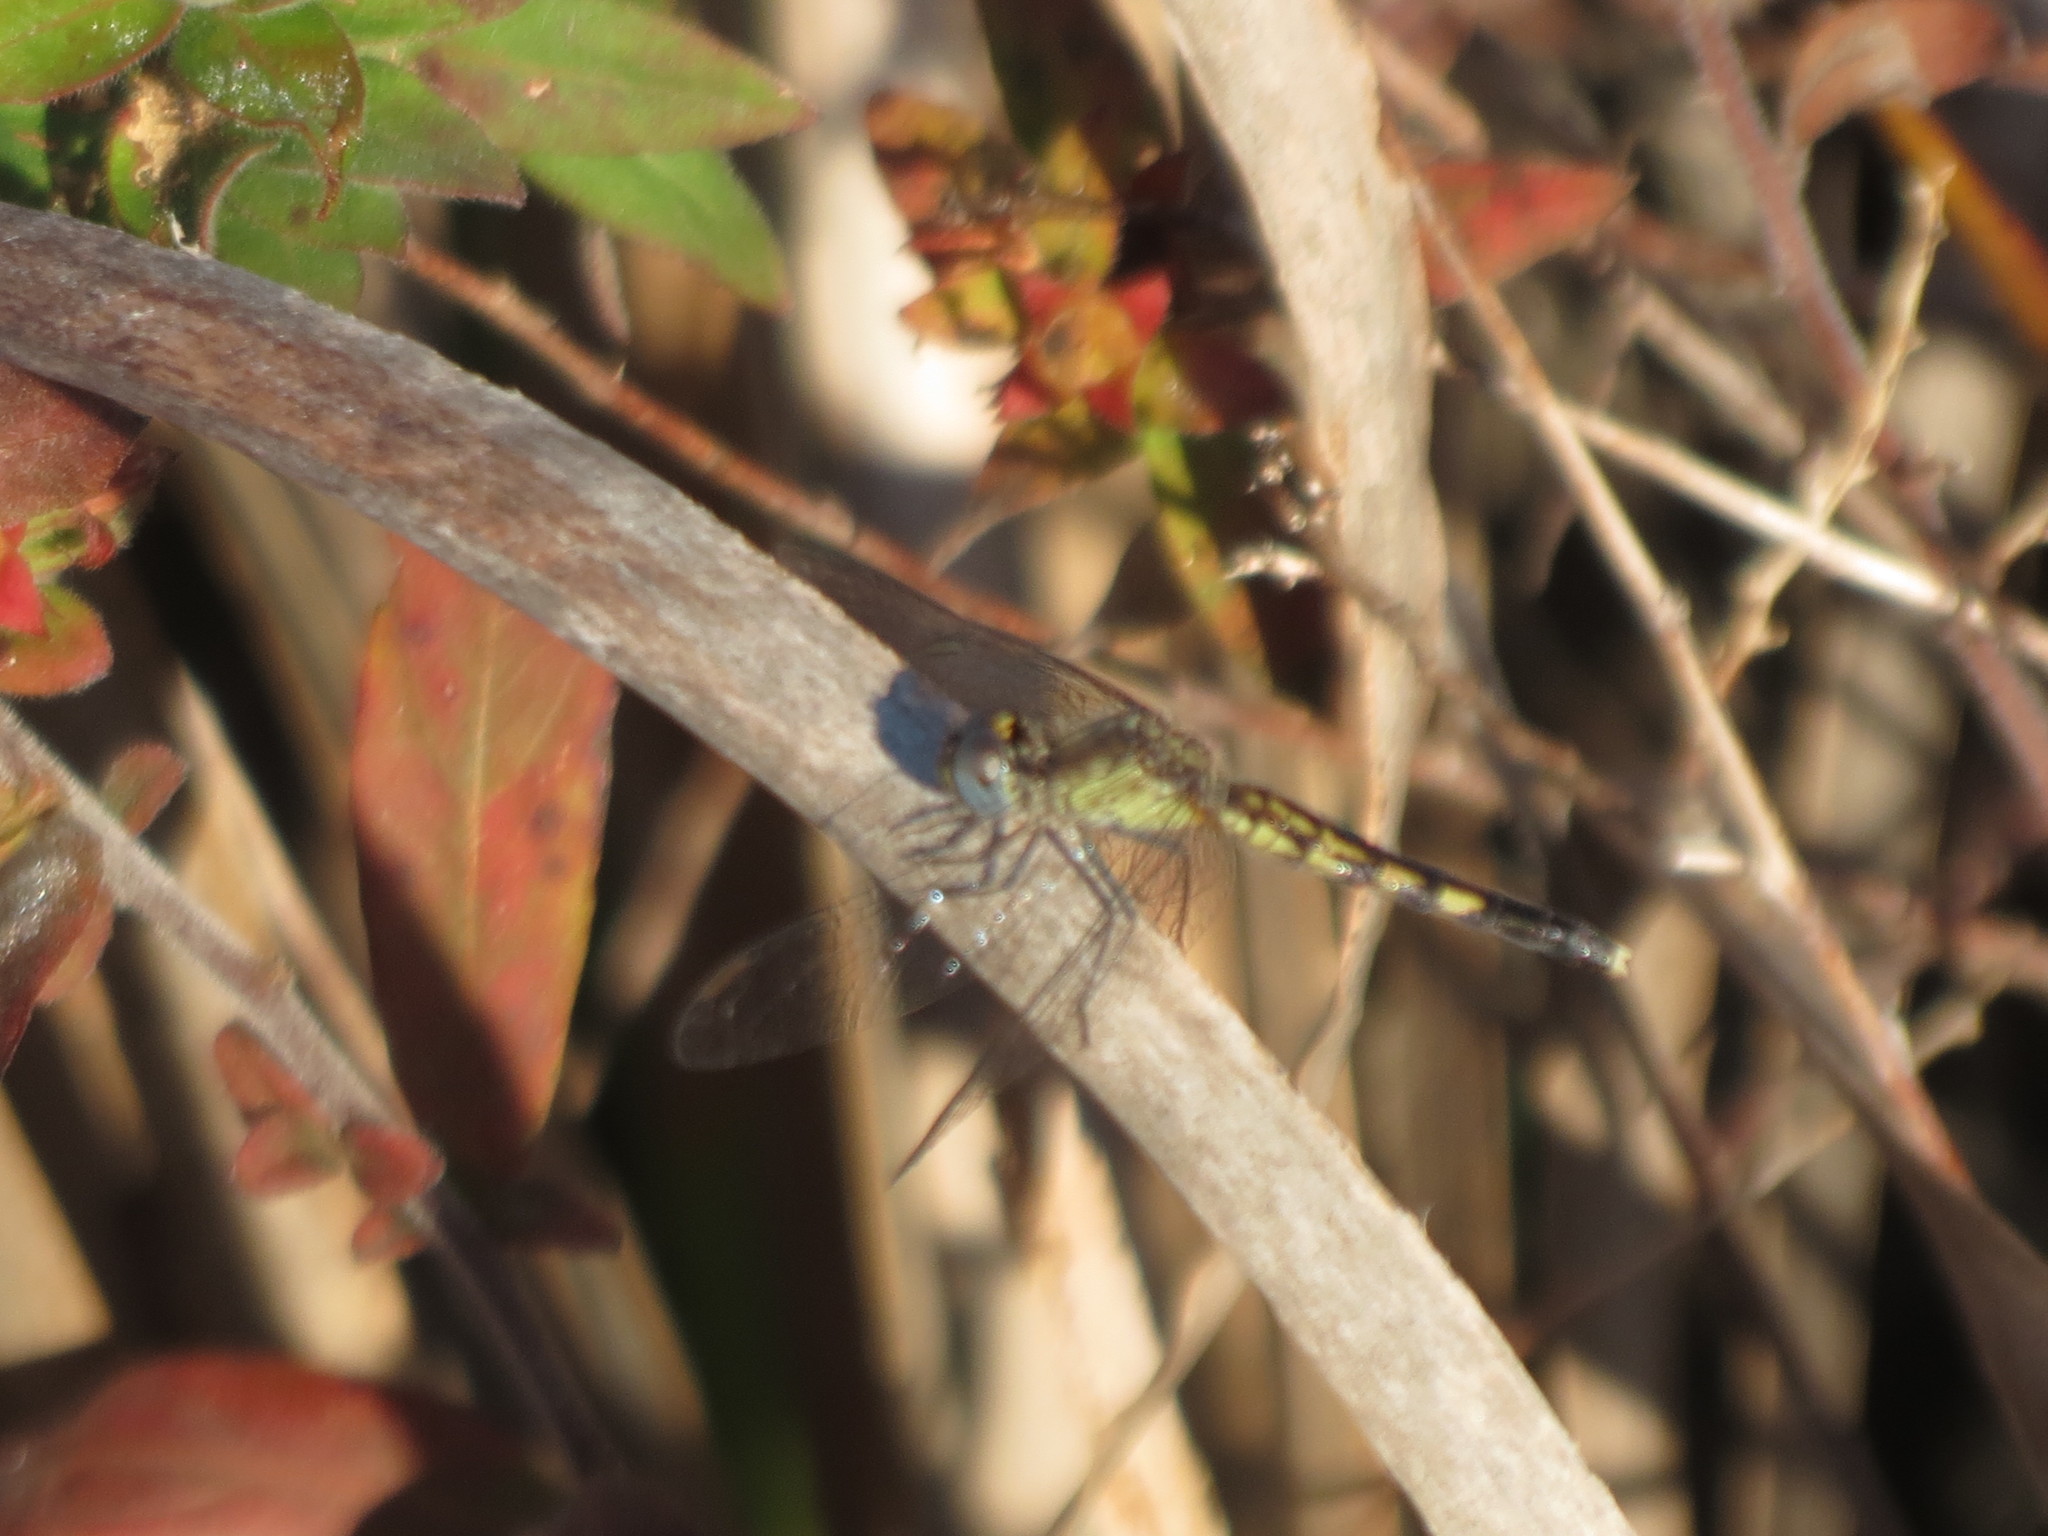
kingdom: Animalia
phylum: Arthropoda
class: Insecta
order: Odonata
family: Libellulidae
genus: Erythrodiplax
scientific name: Erythrodiplax minuscula
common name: Little blue dragonlet
